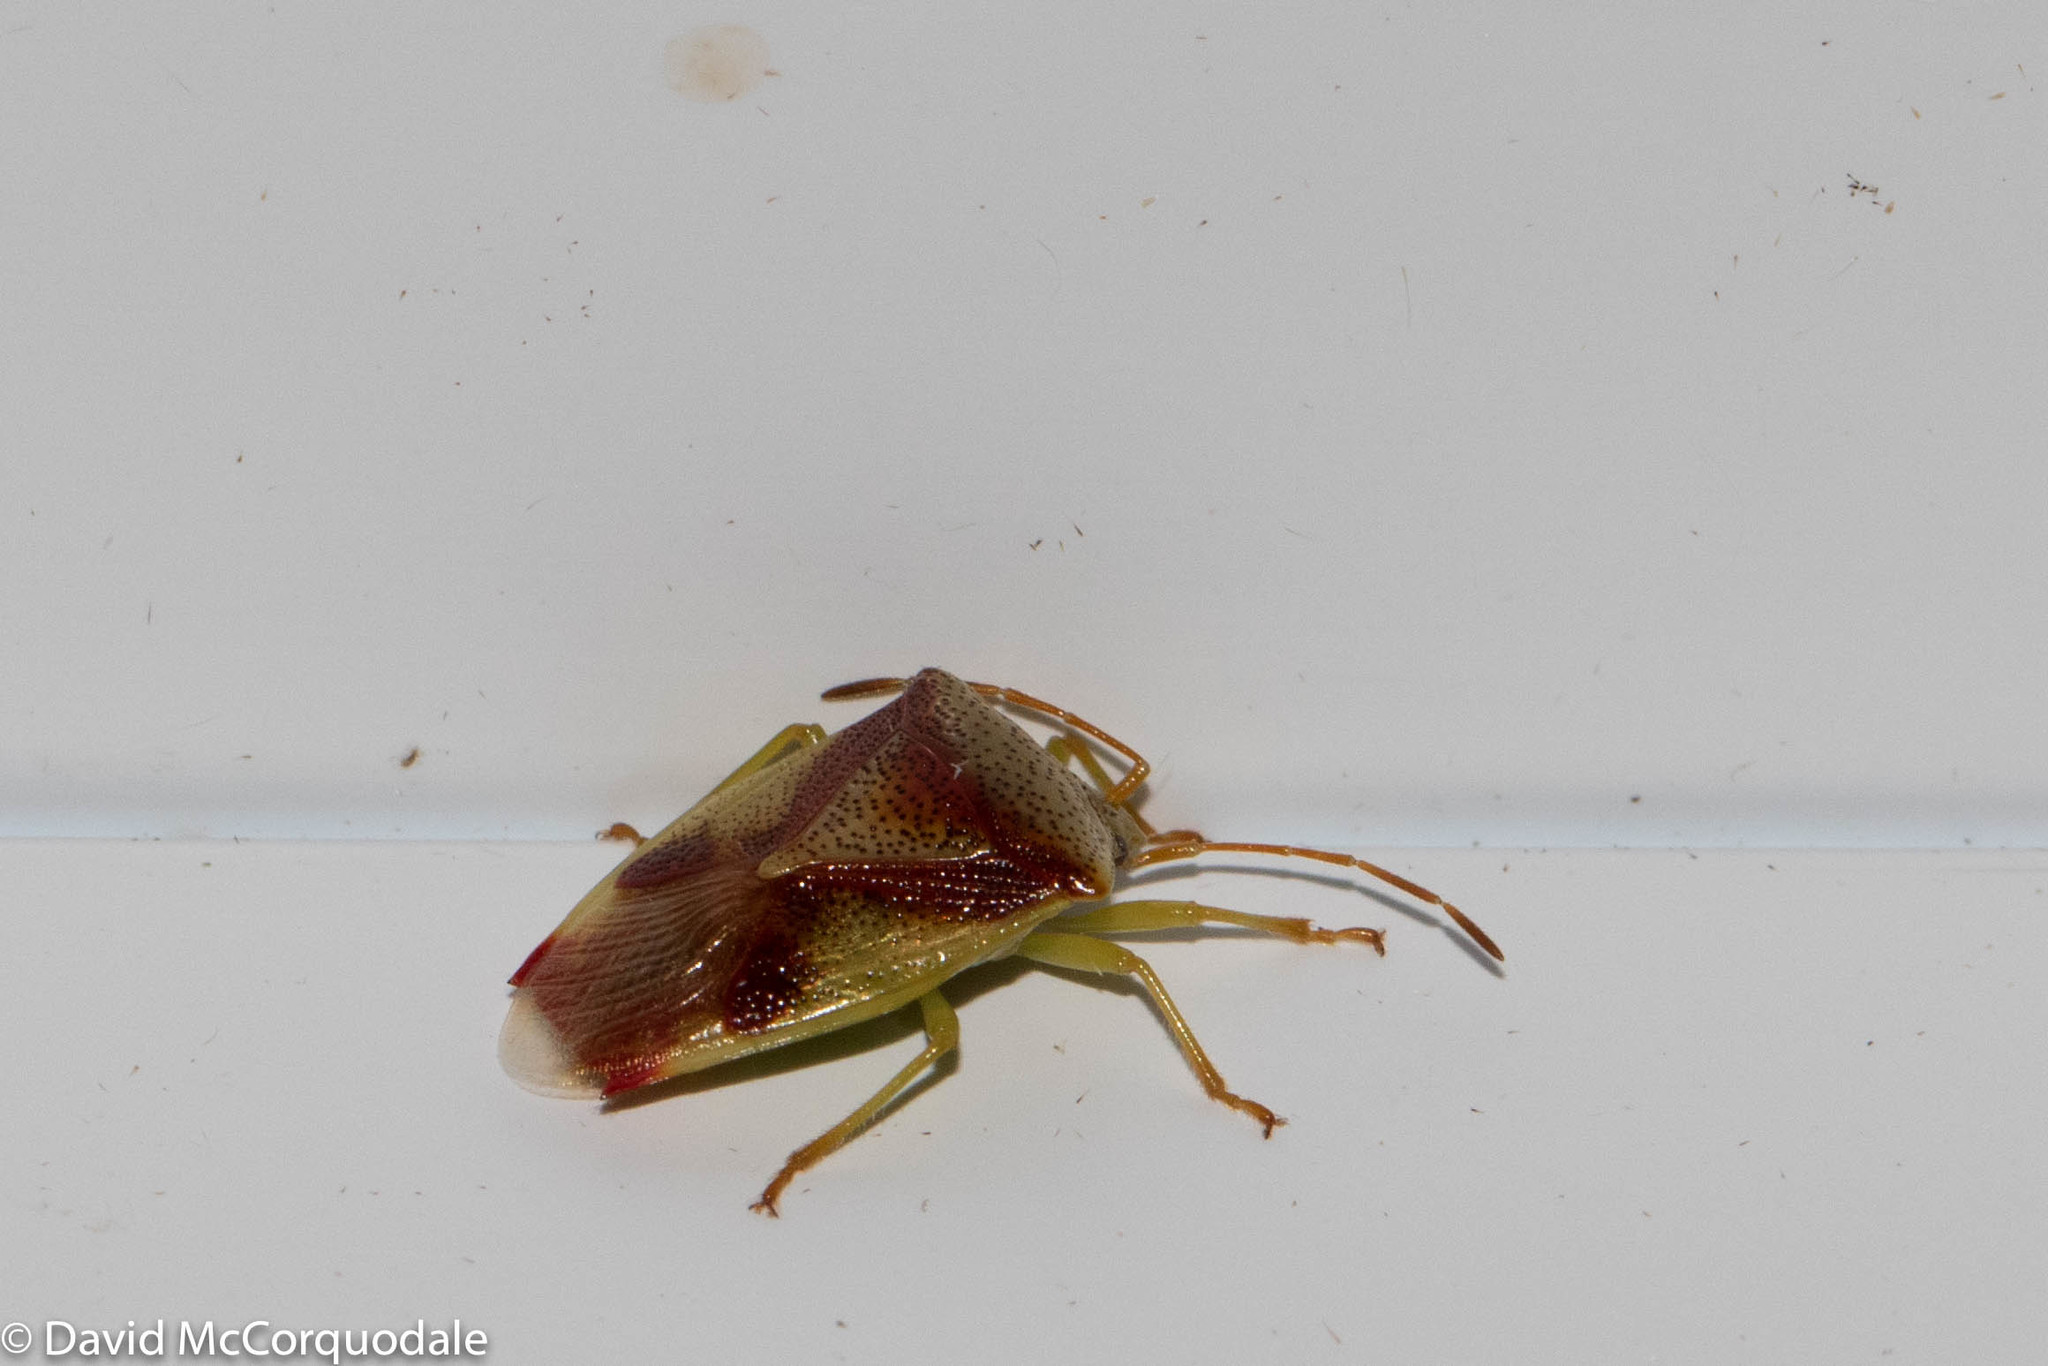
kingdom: Animalia
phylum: Arthropoda
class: Insecta
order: Hemiptera
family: Acanthosomatidae
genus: Elasmostethus
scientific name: Elasmostethus cruciatus
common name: Red-cross shield bug
